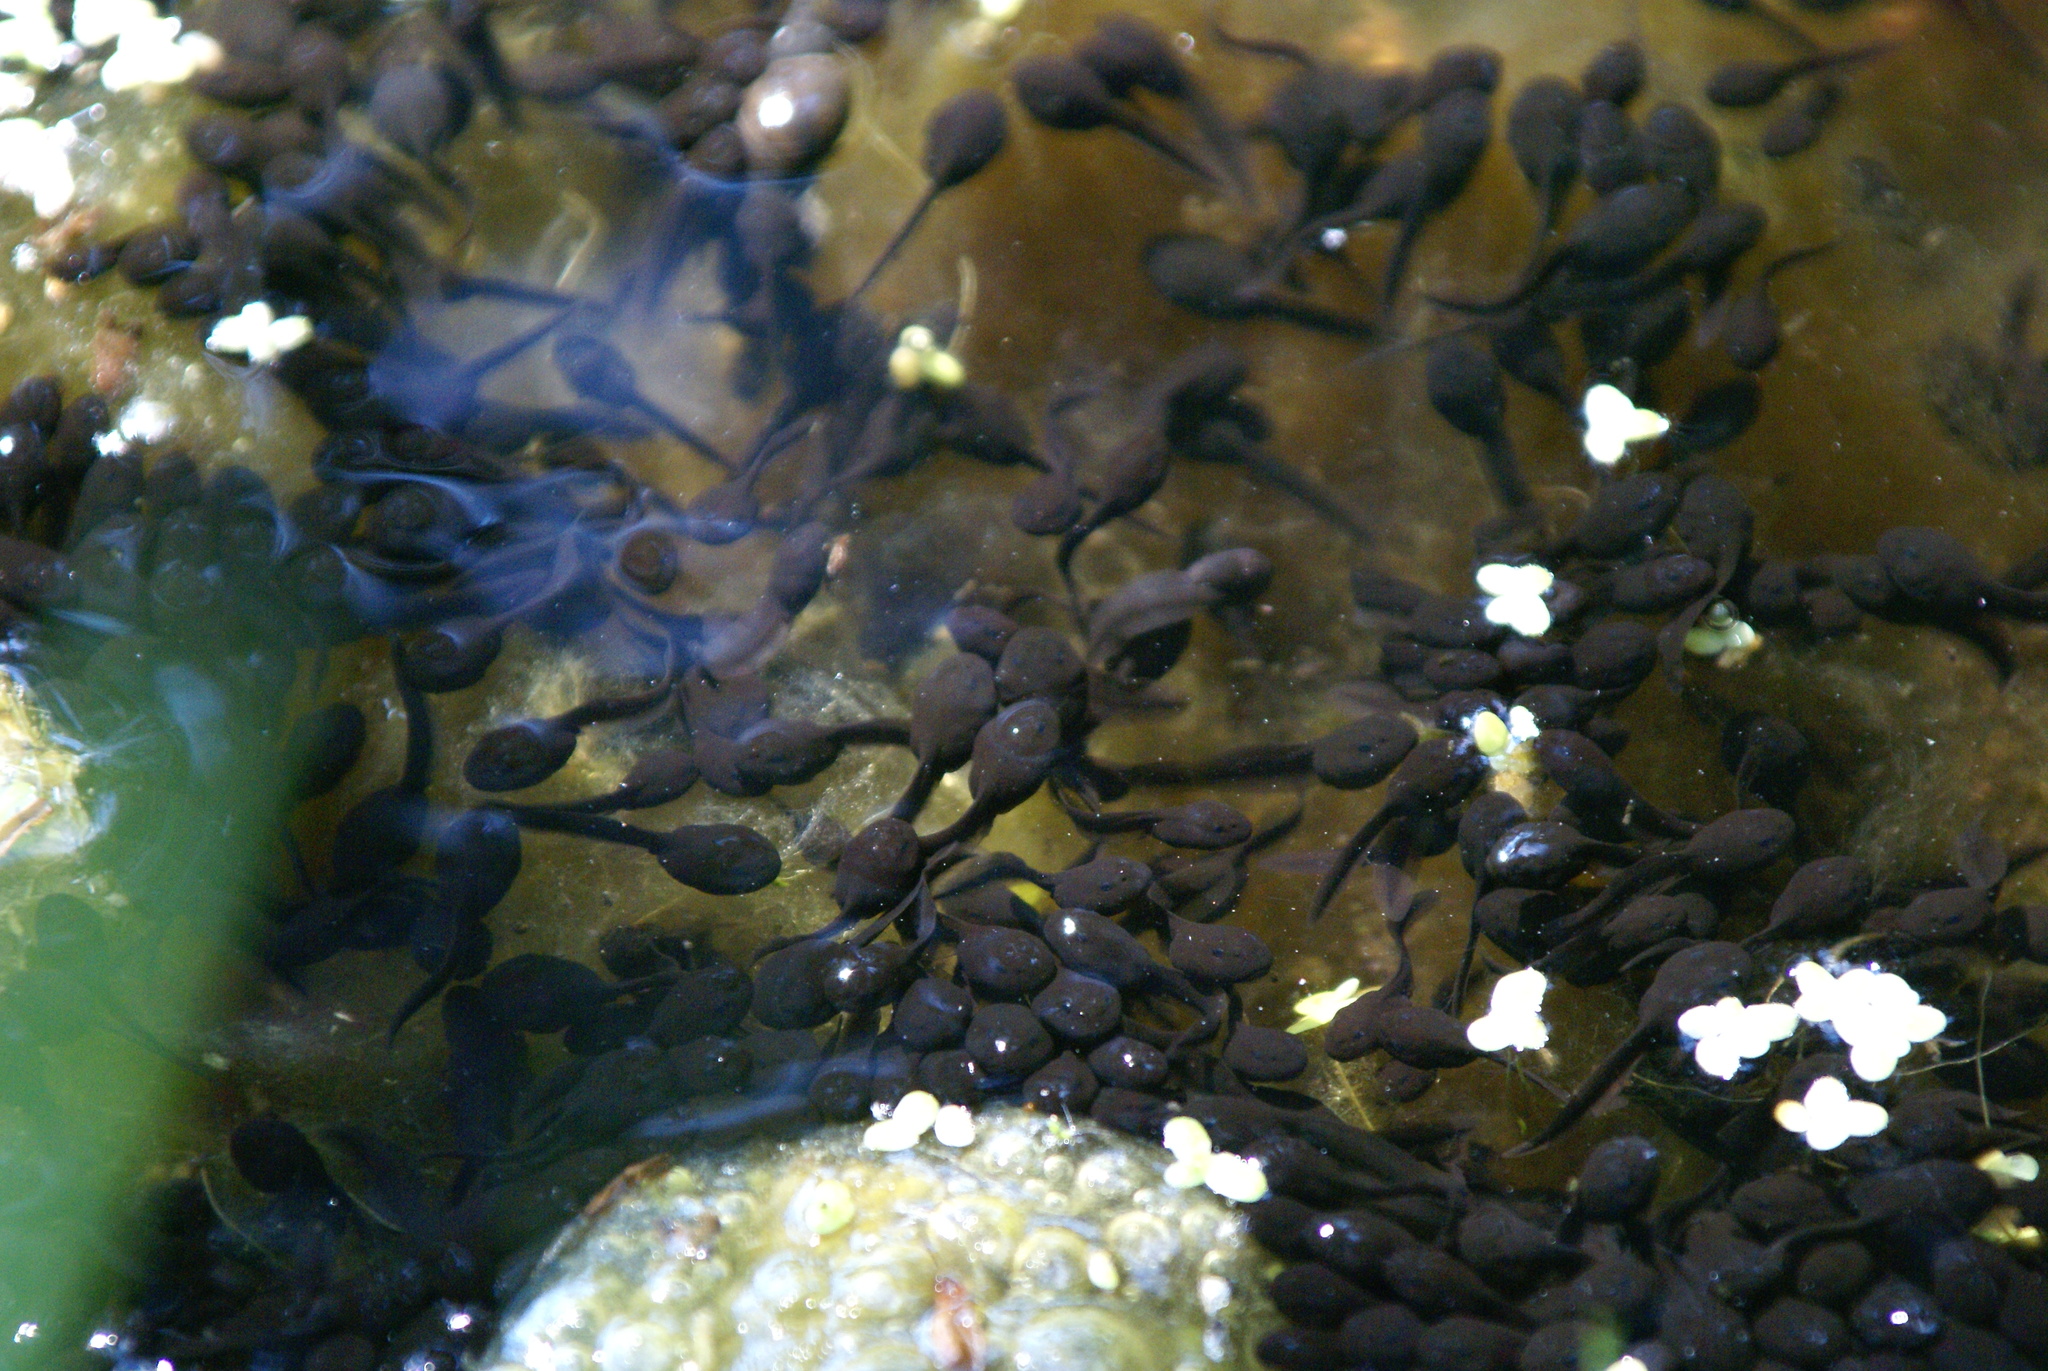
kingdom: Animalia
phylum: Chordata
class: Amphibia
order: Anura
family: Bufonidae
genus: Bufo
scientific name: Bufo bufo
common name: Common toad
